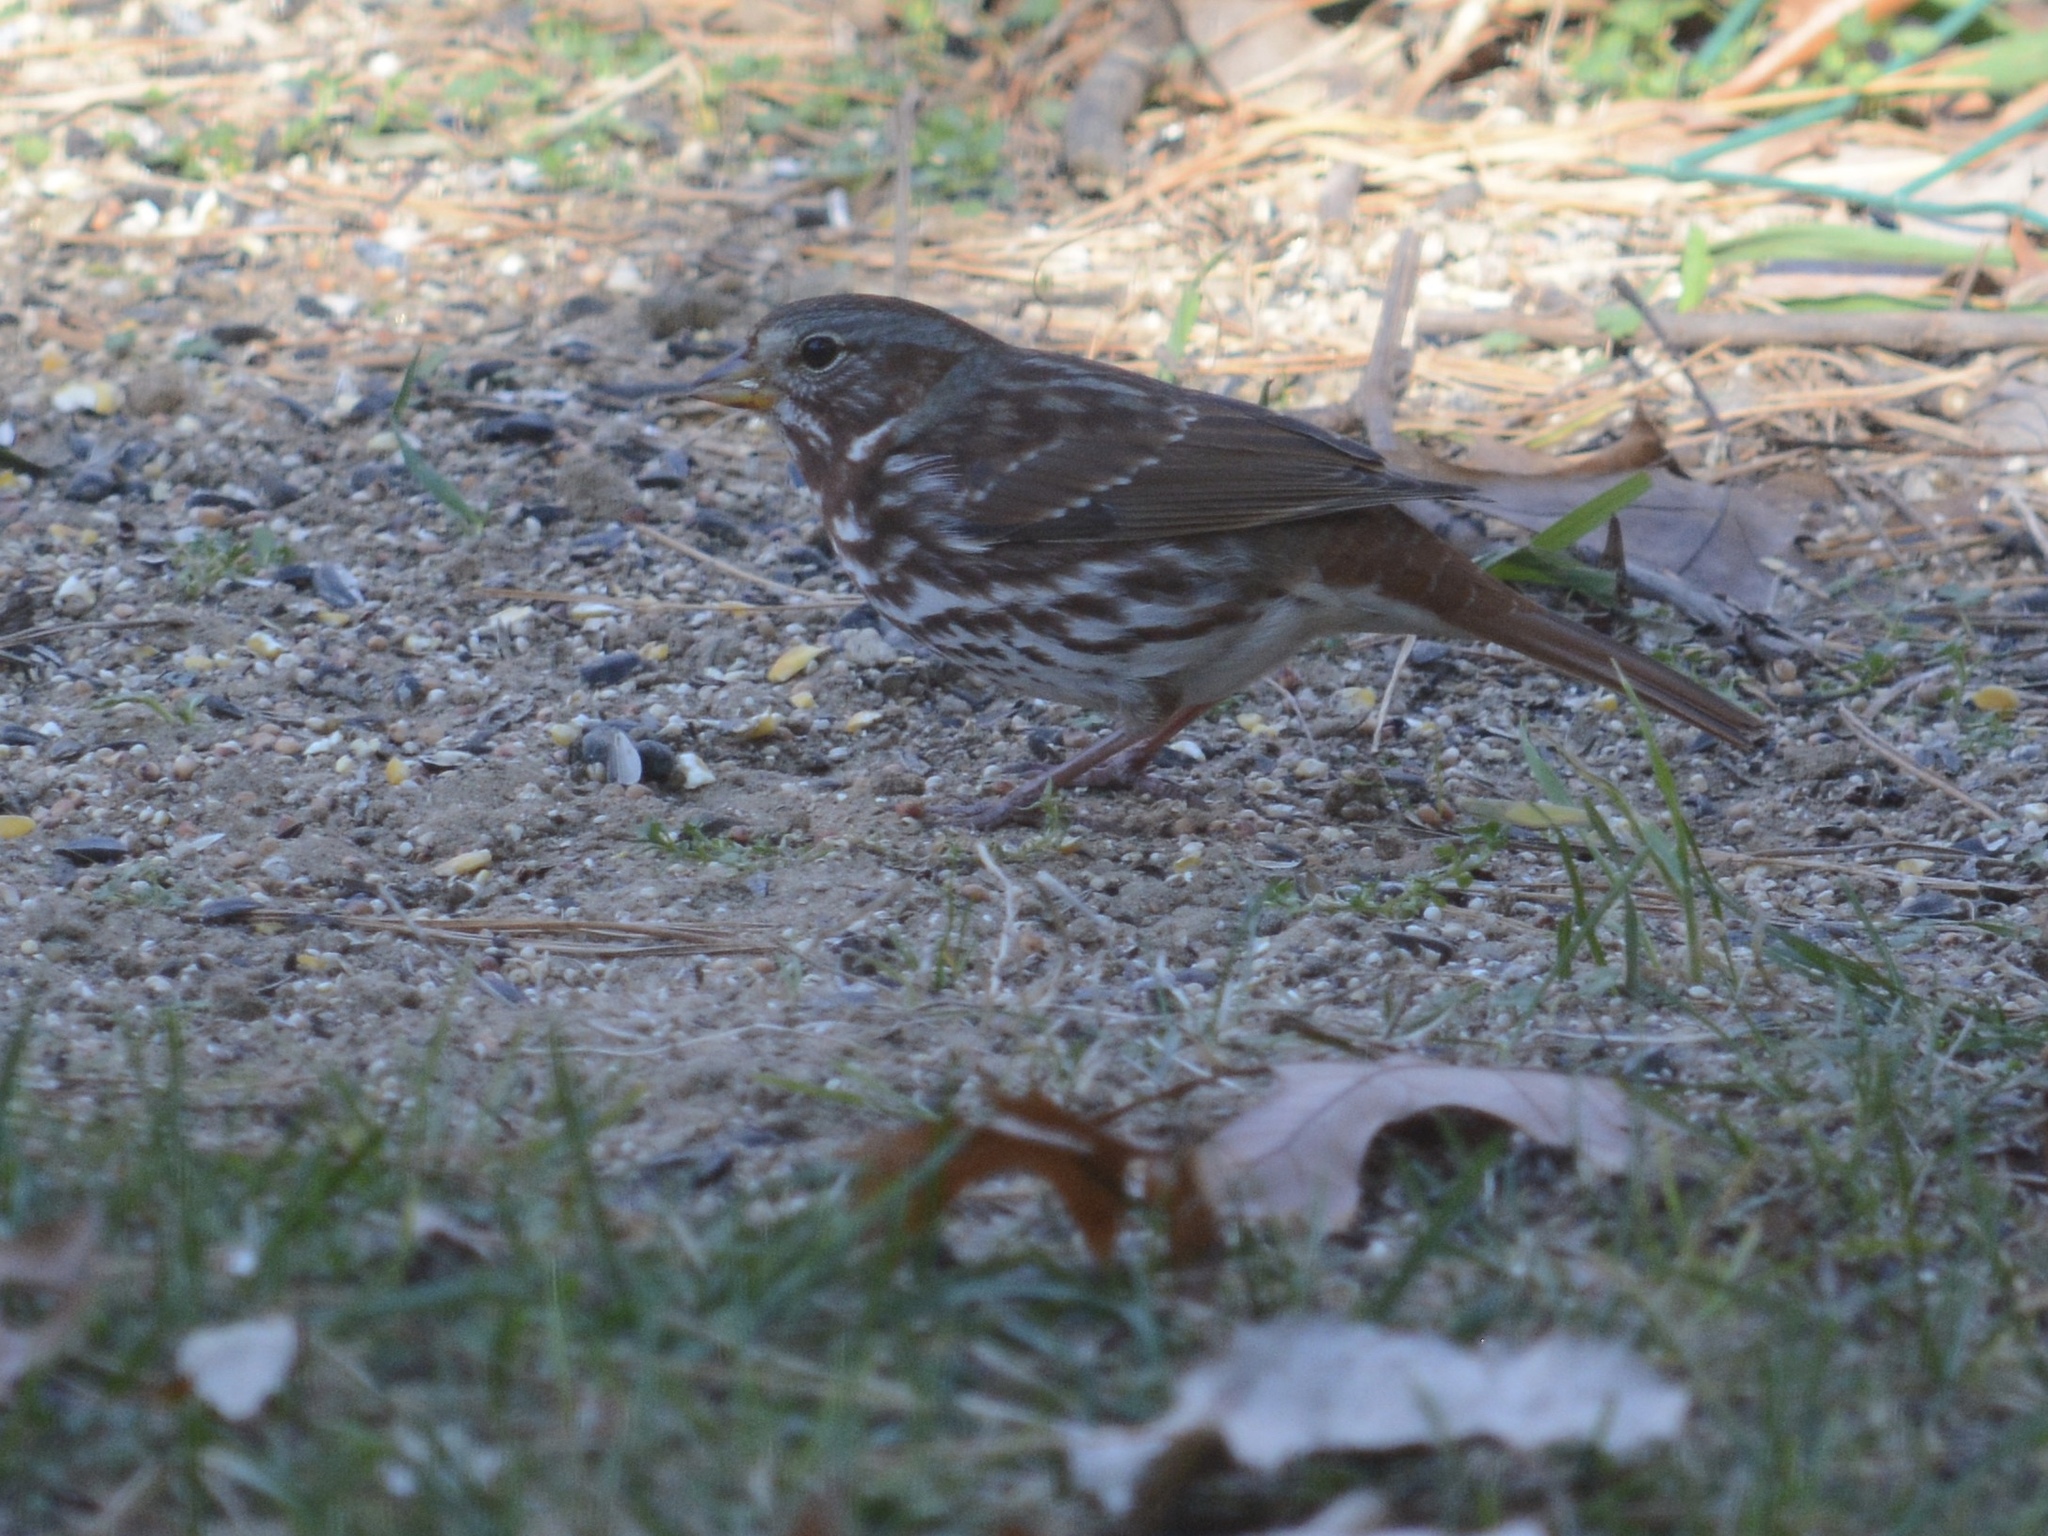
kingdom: Animalia
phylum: Chordata
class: Aves
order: Passeriformes
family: Passerellidae
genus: Passerella
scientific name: Passerella iliaca
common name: Fox sparrow
